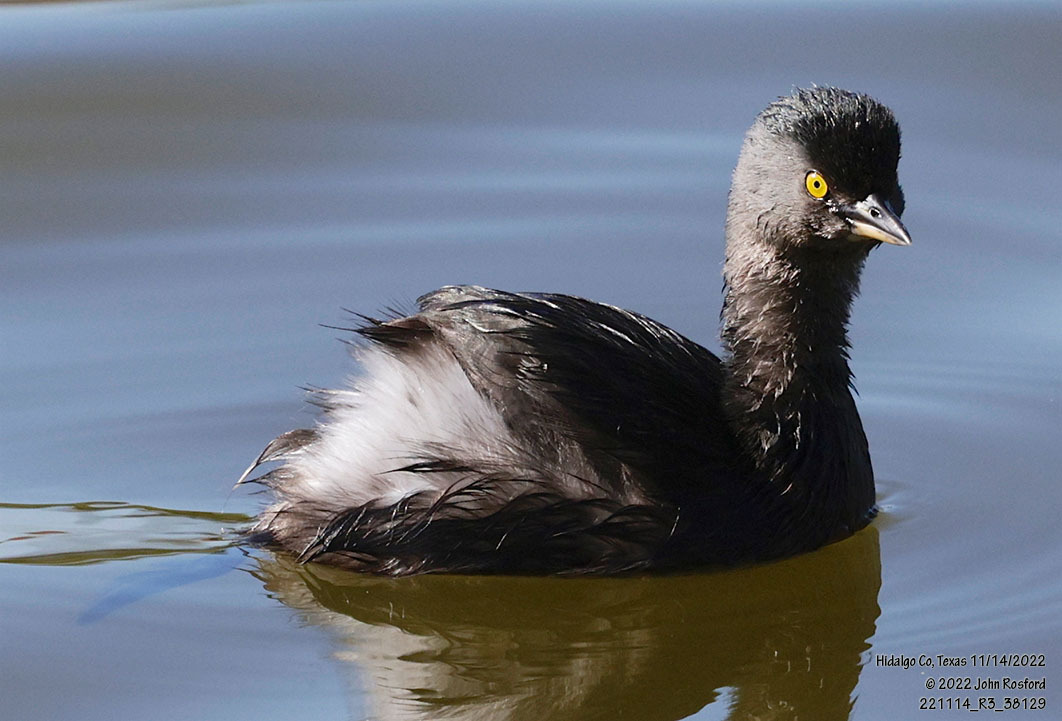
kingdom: Animalia
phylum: Chordata
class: Aves
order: Podicipediformes
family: Podicipedidae
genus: Tachybaptus
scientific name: Tachybaptus dominicus
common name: Least grebe
